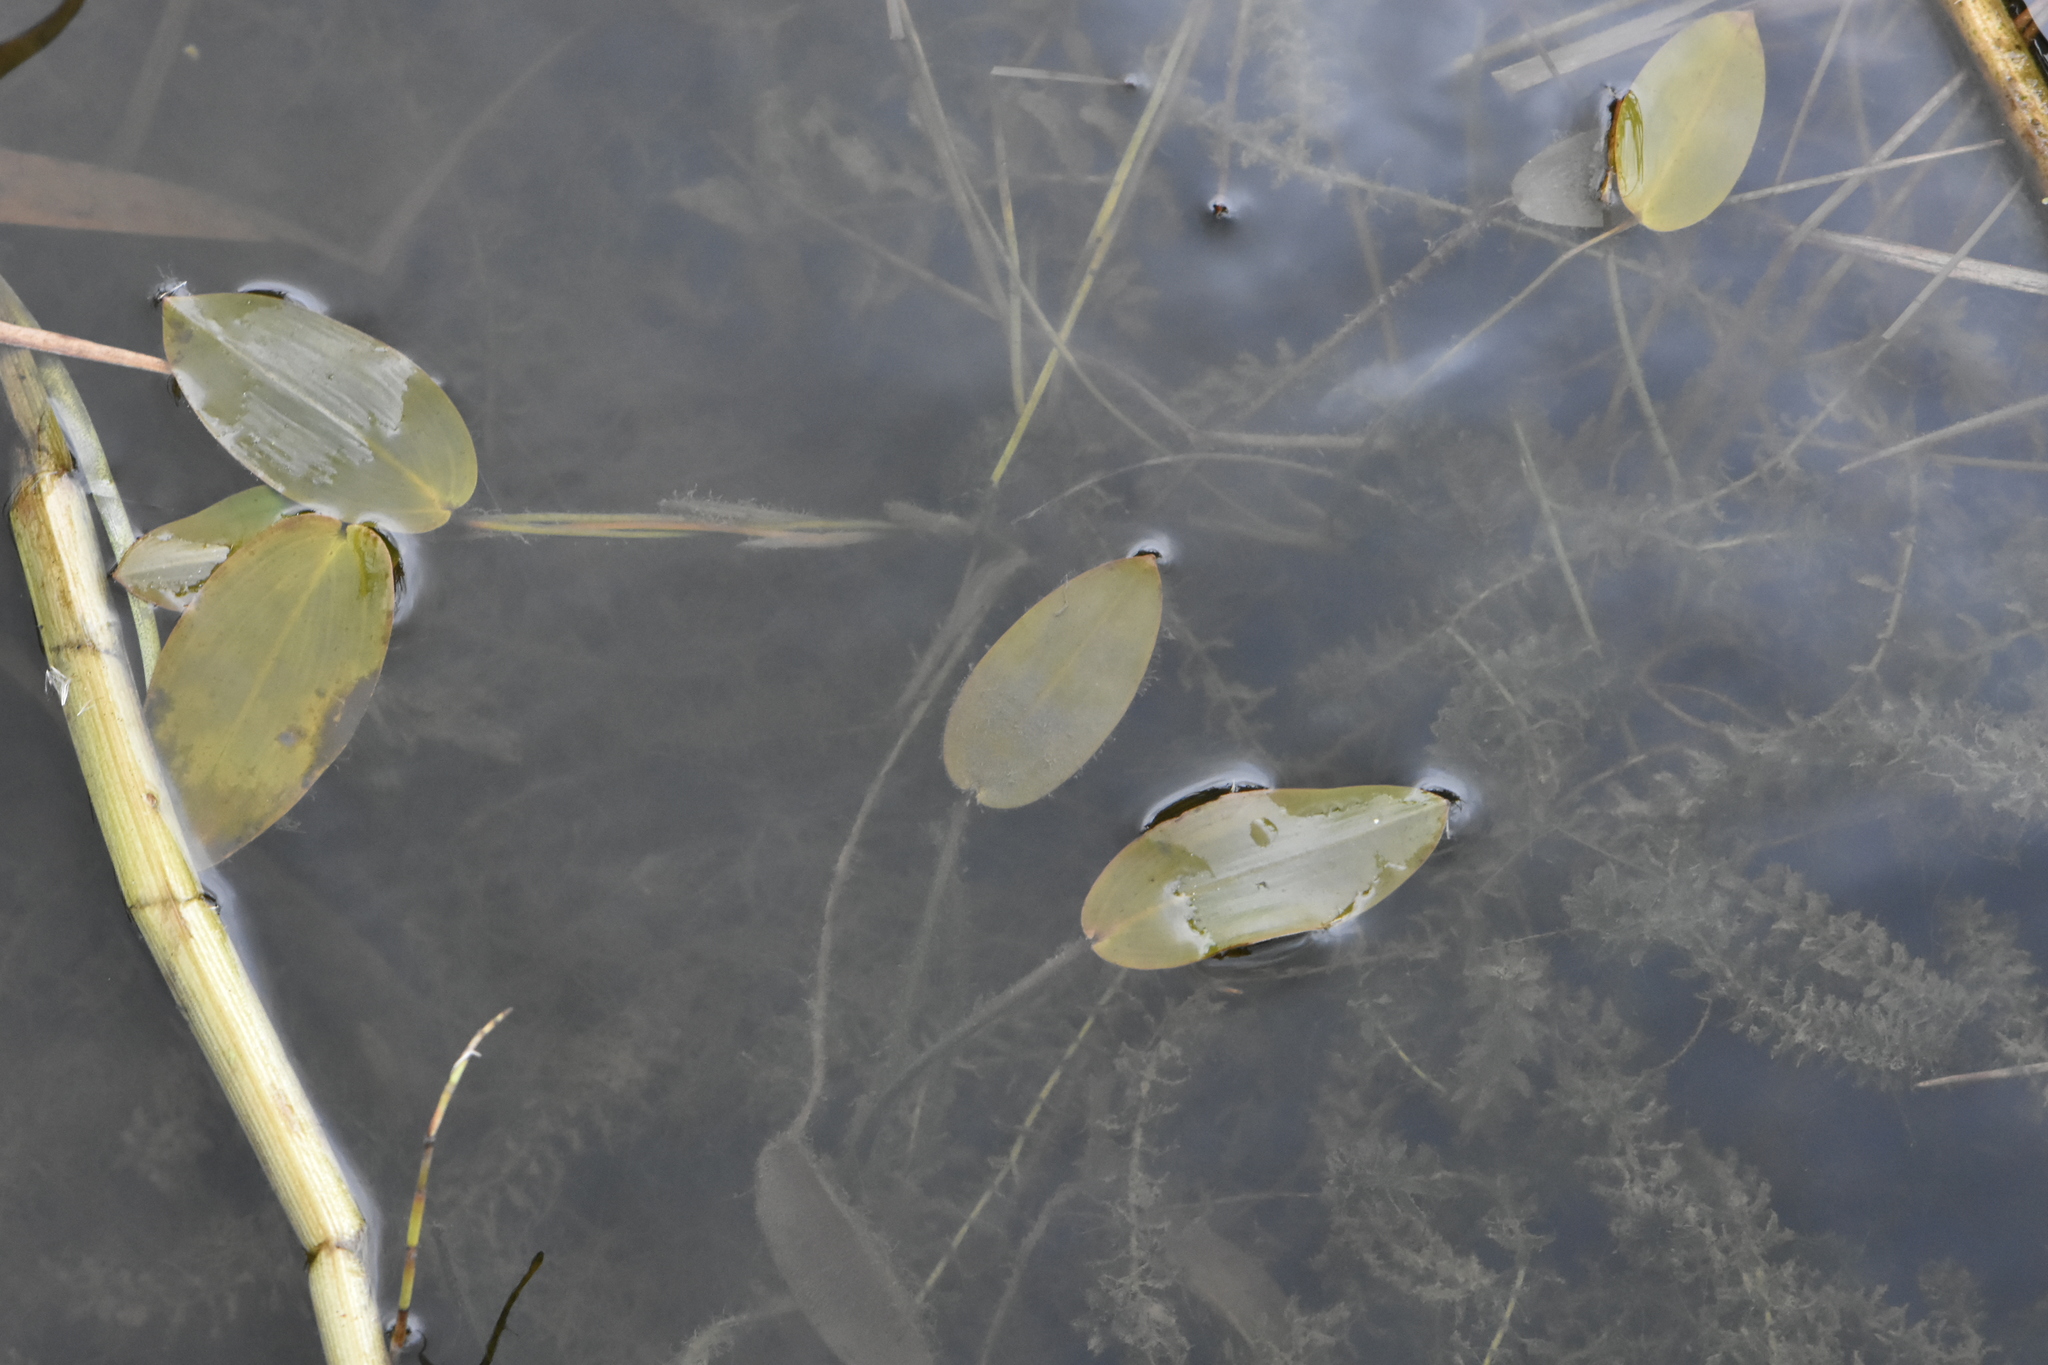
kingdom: Plantae
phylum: Tracheophyta
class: Liliopsida
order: Alismatales
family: Potamogetonaceae
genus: Potamogeton
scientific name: Potamogeton natans
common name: Broad-leaved pondweed
